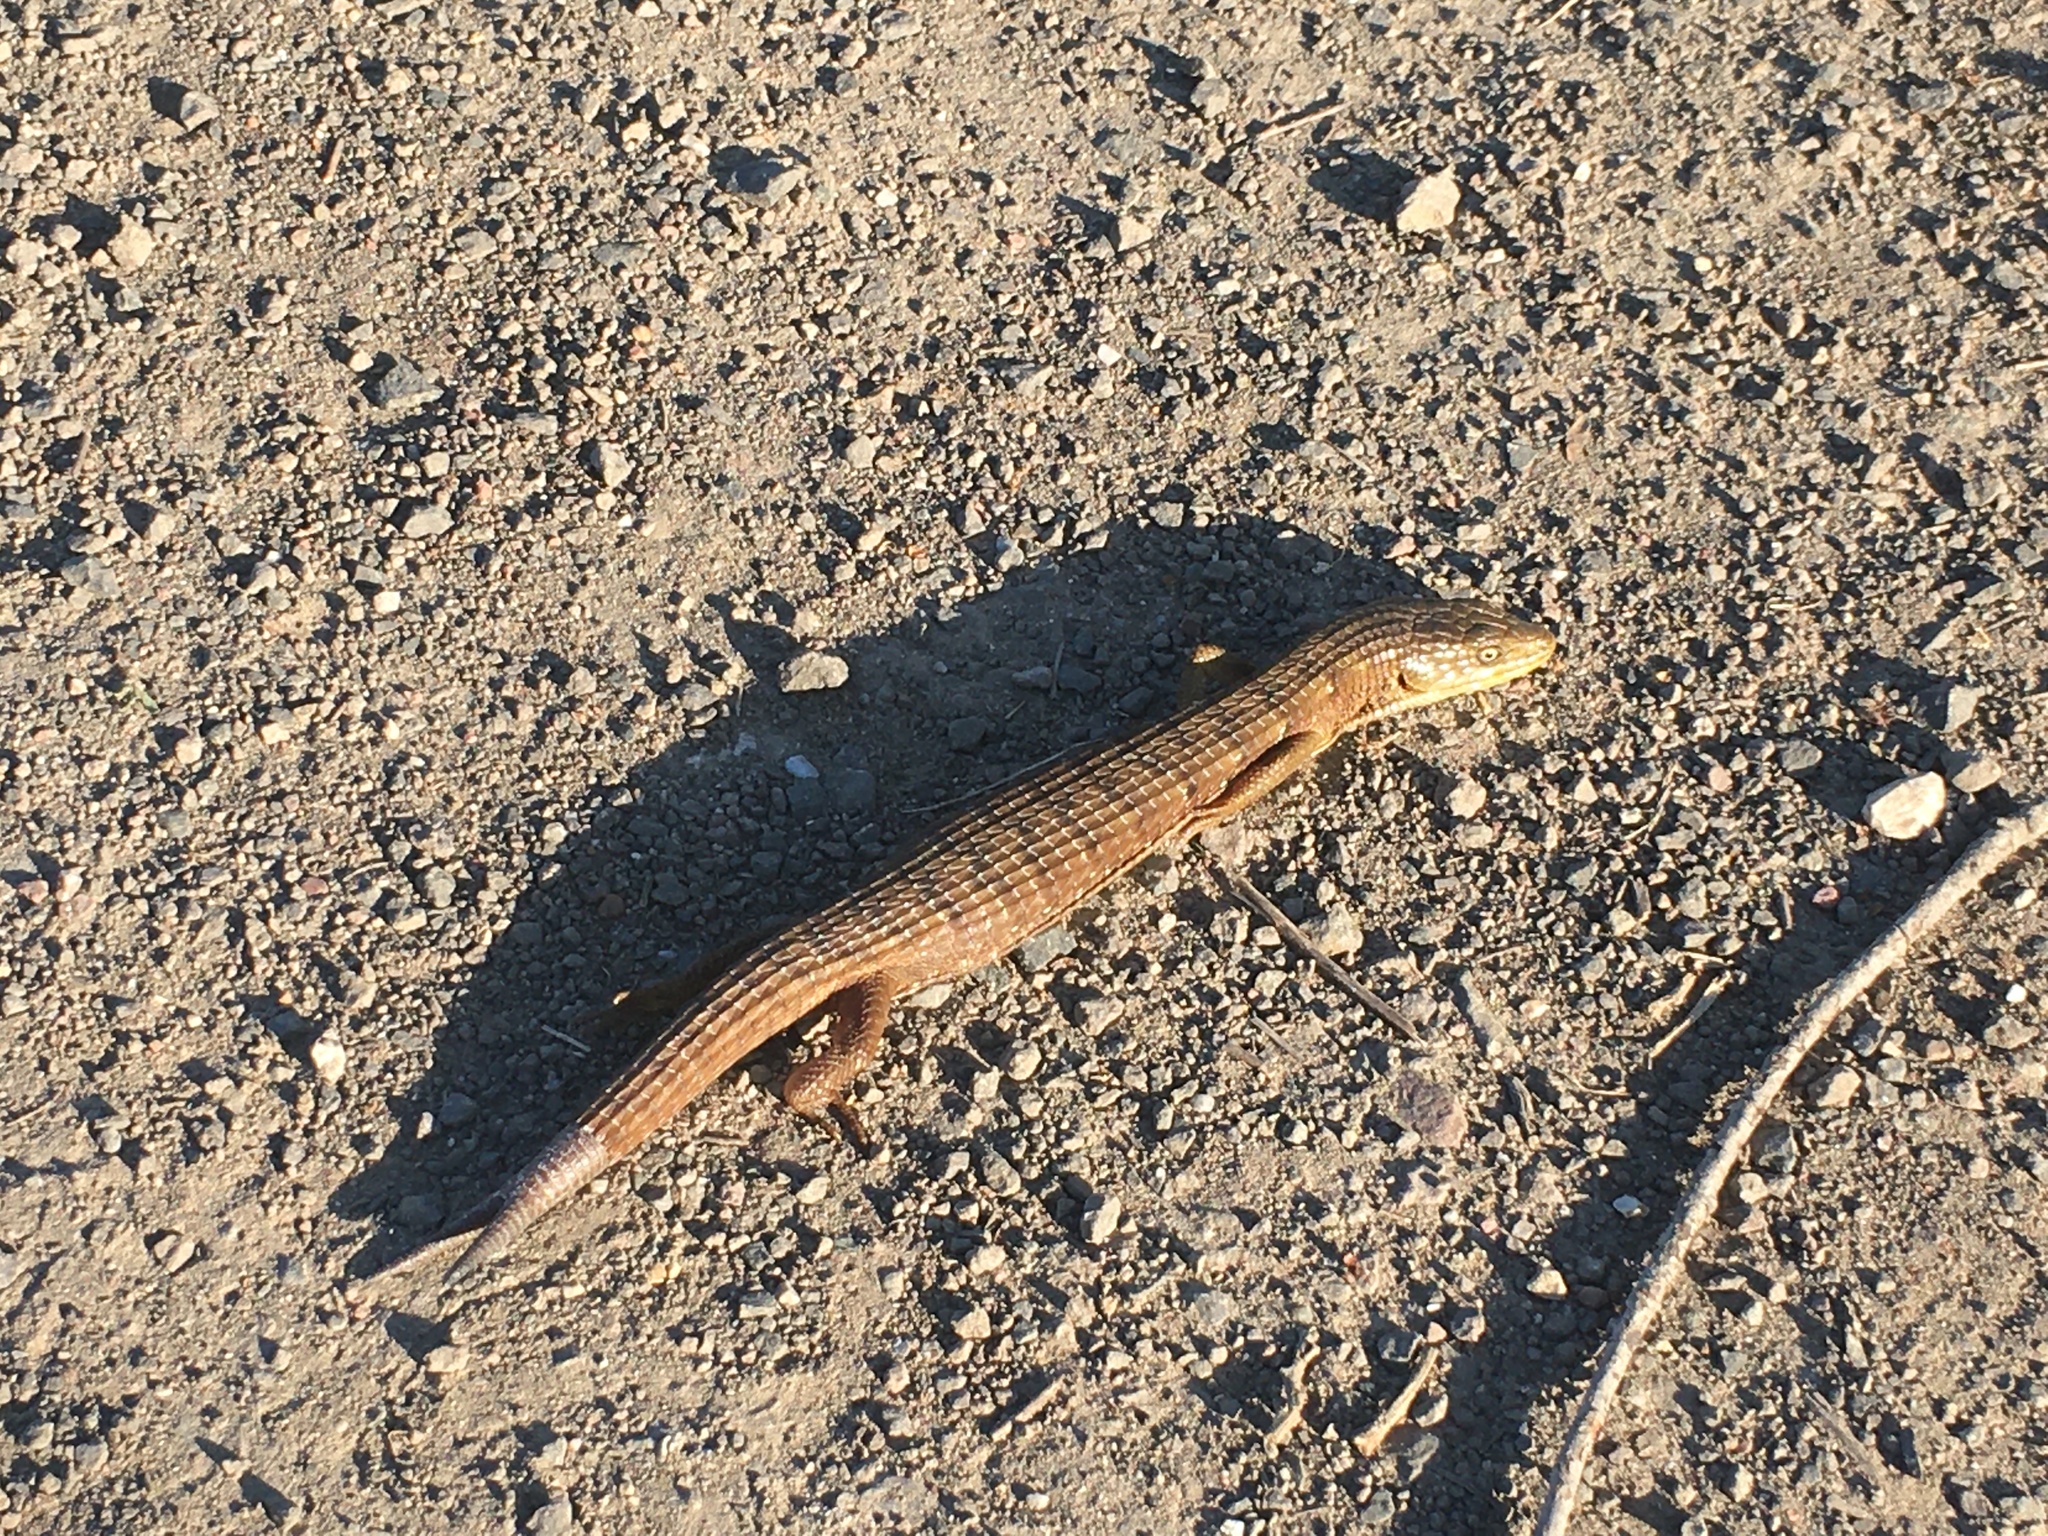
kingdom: Animalia
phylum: Chordata
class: Squamata
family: Anguidae
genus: Elgaria
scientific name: Elgaria multicarinata
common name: Southern alligator lizard
